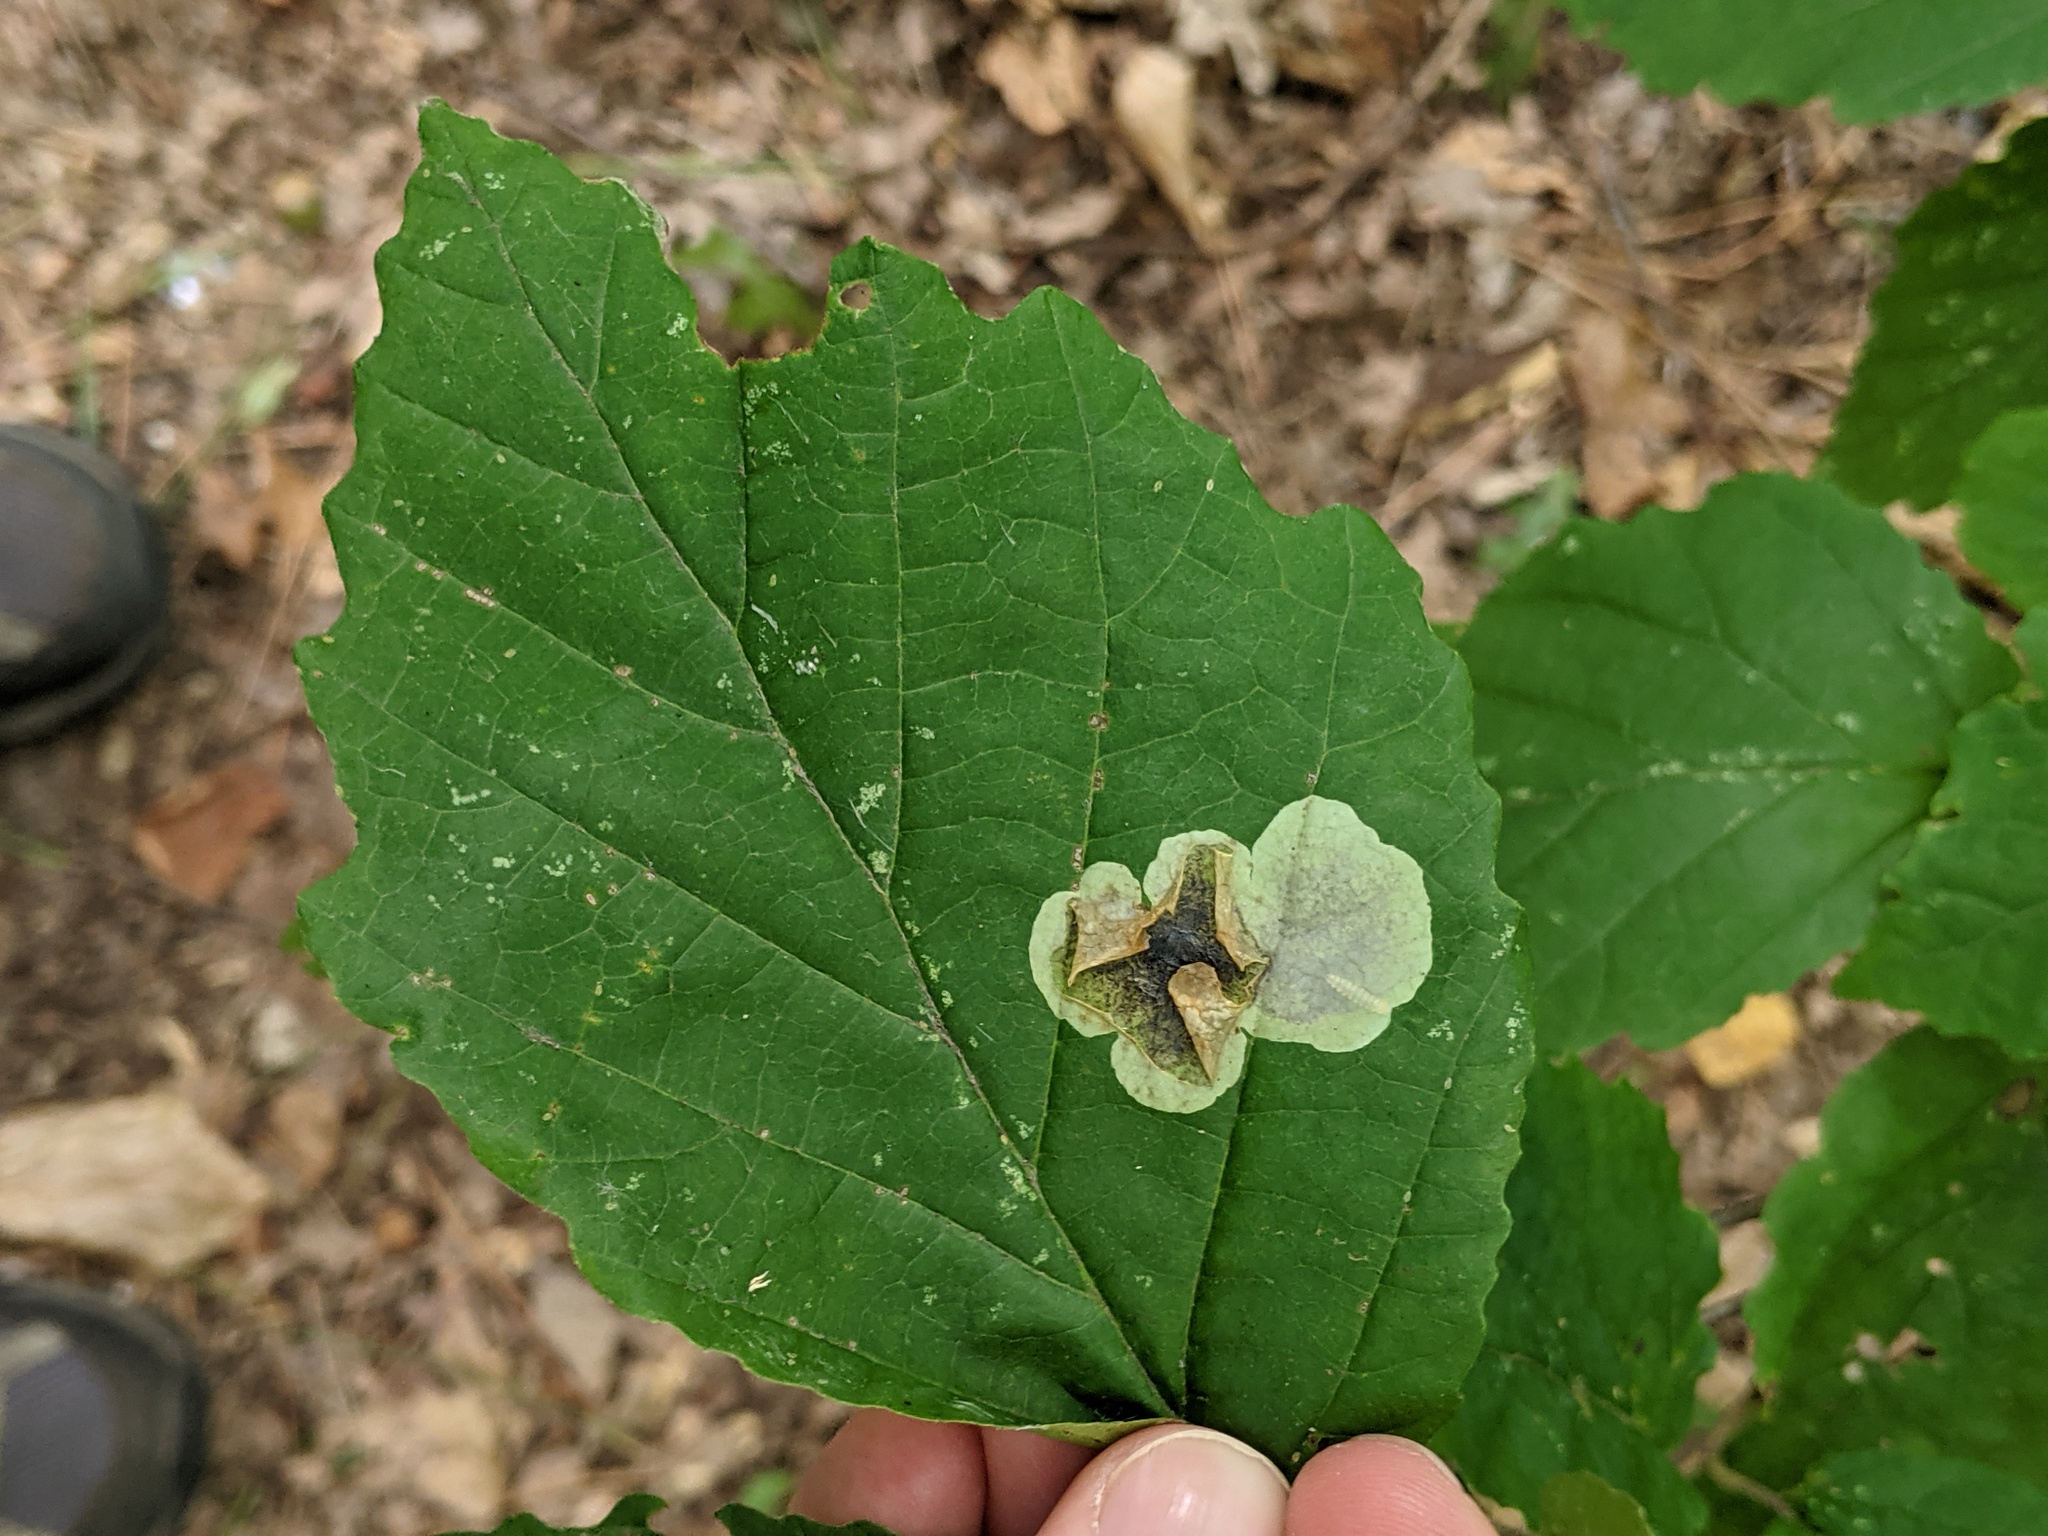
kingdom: Animalia
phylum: Arthropoda
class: Insecta
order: Lepidoptera
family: Gracillariidae
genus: Cameraria
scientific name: Cameraria hamameliella
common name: Witchhazel leafminer
